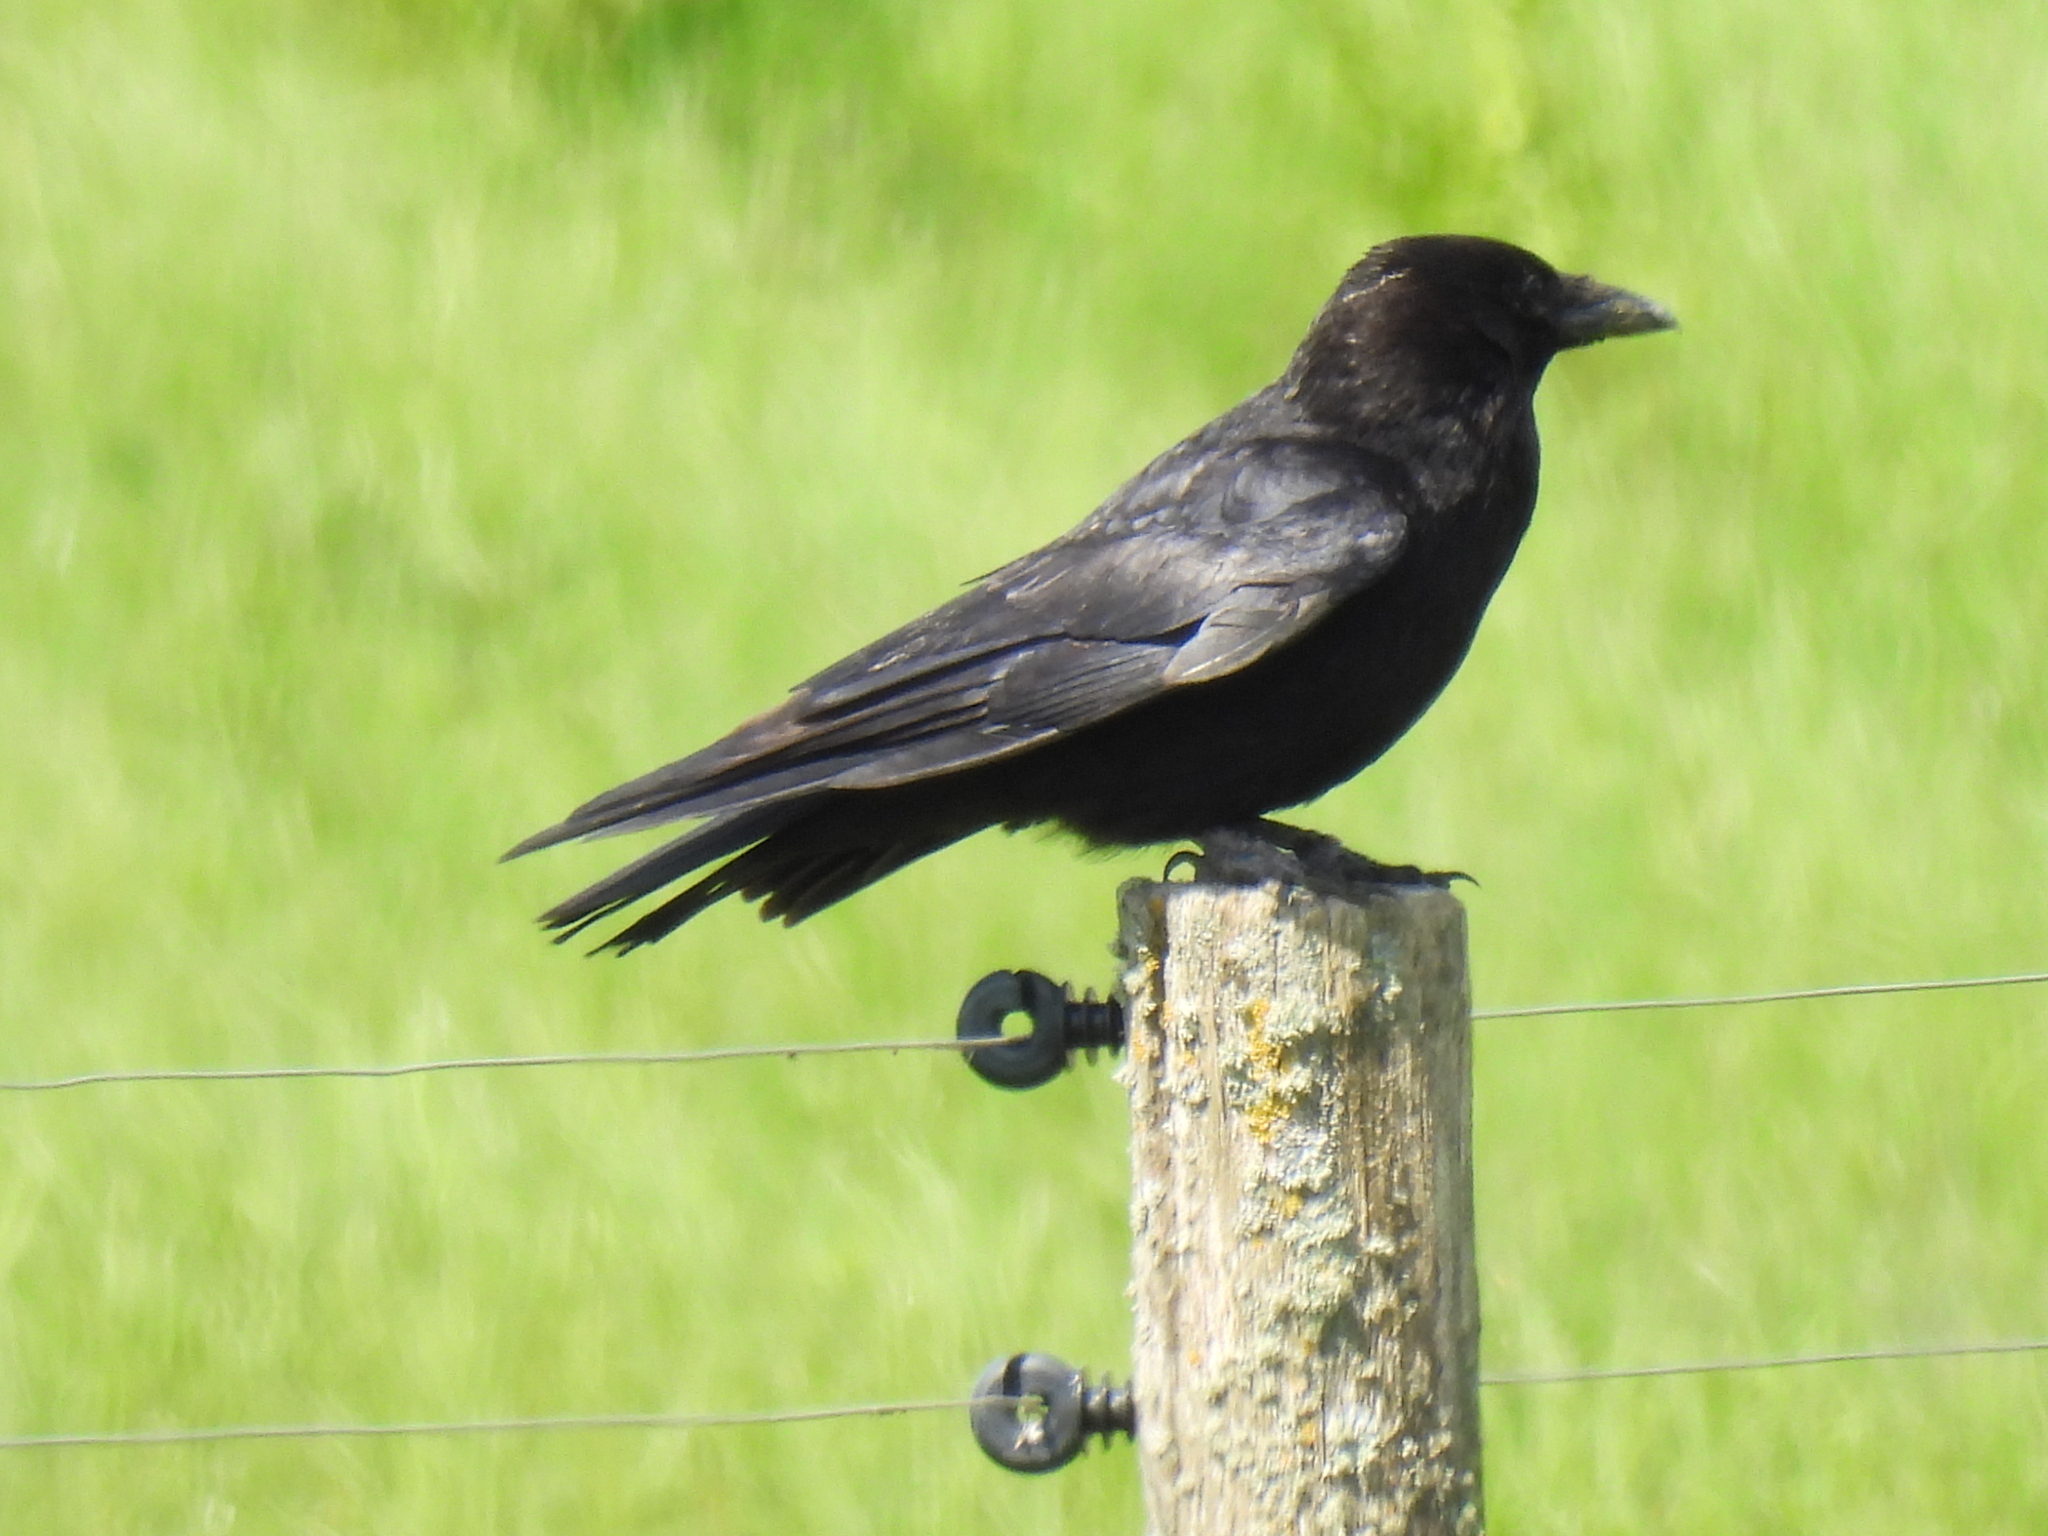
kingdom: Animalia
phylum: Chordata
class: Aves
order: Passeriformes
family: Corvidae
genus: Corvus
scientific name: Corvus corone
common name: Carrion crow
